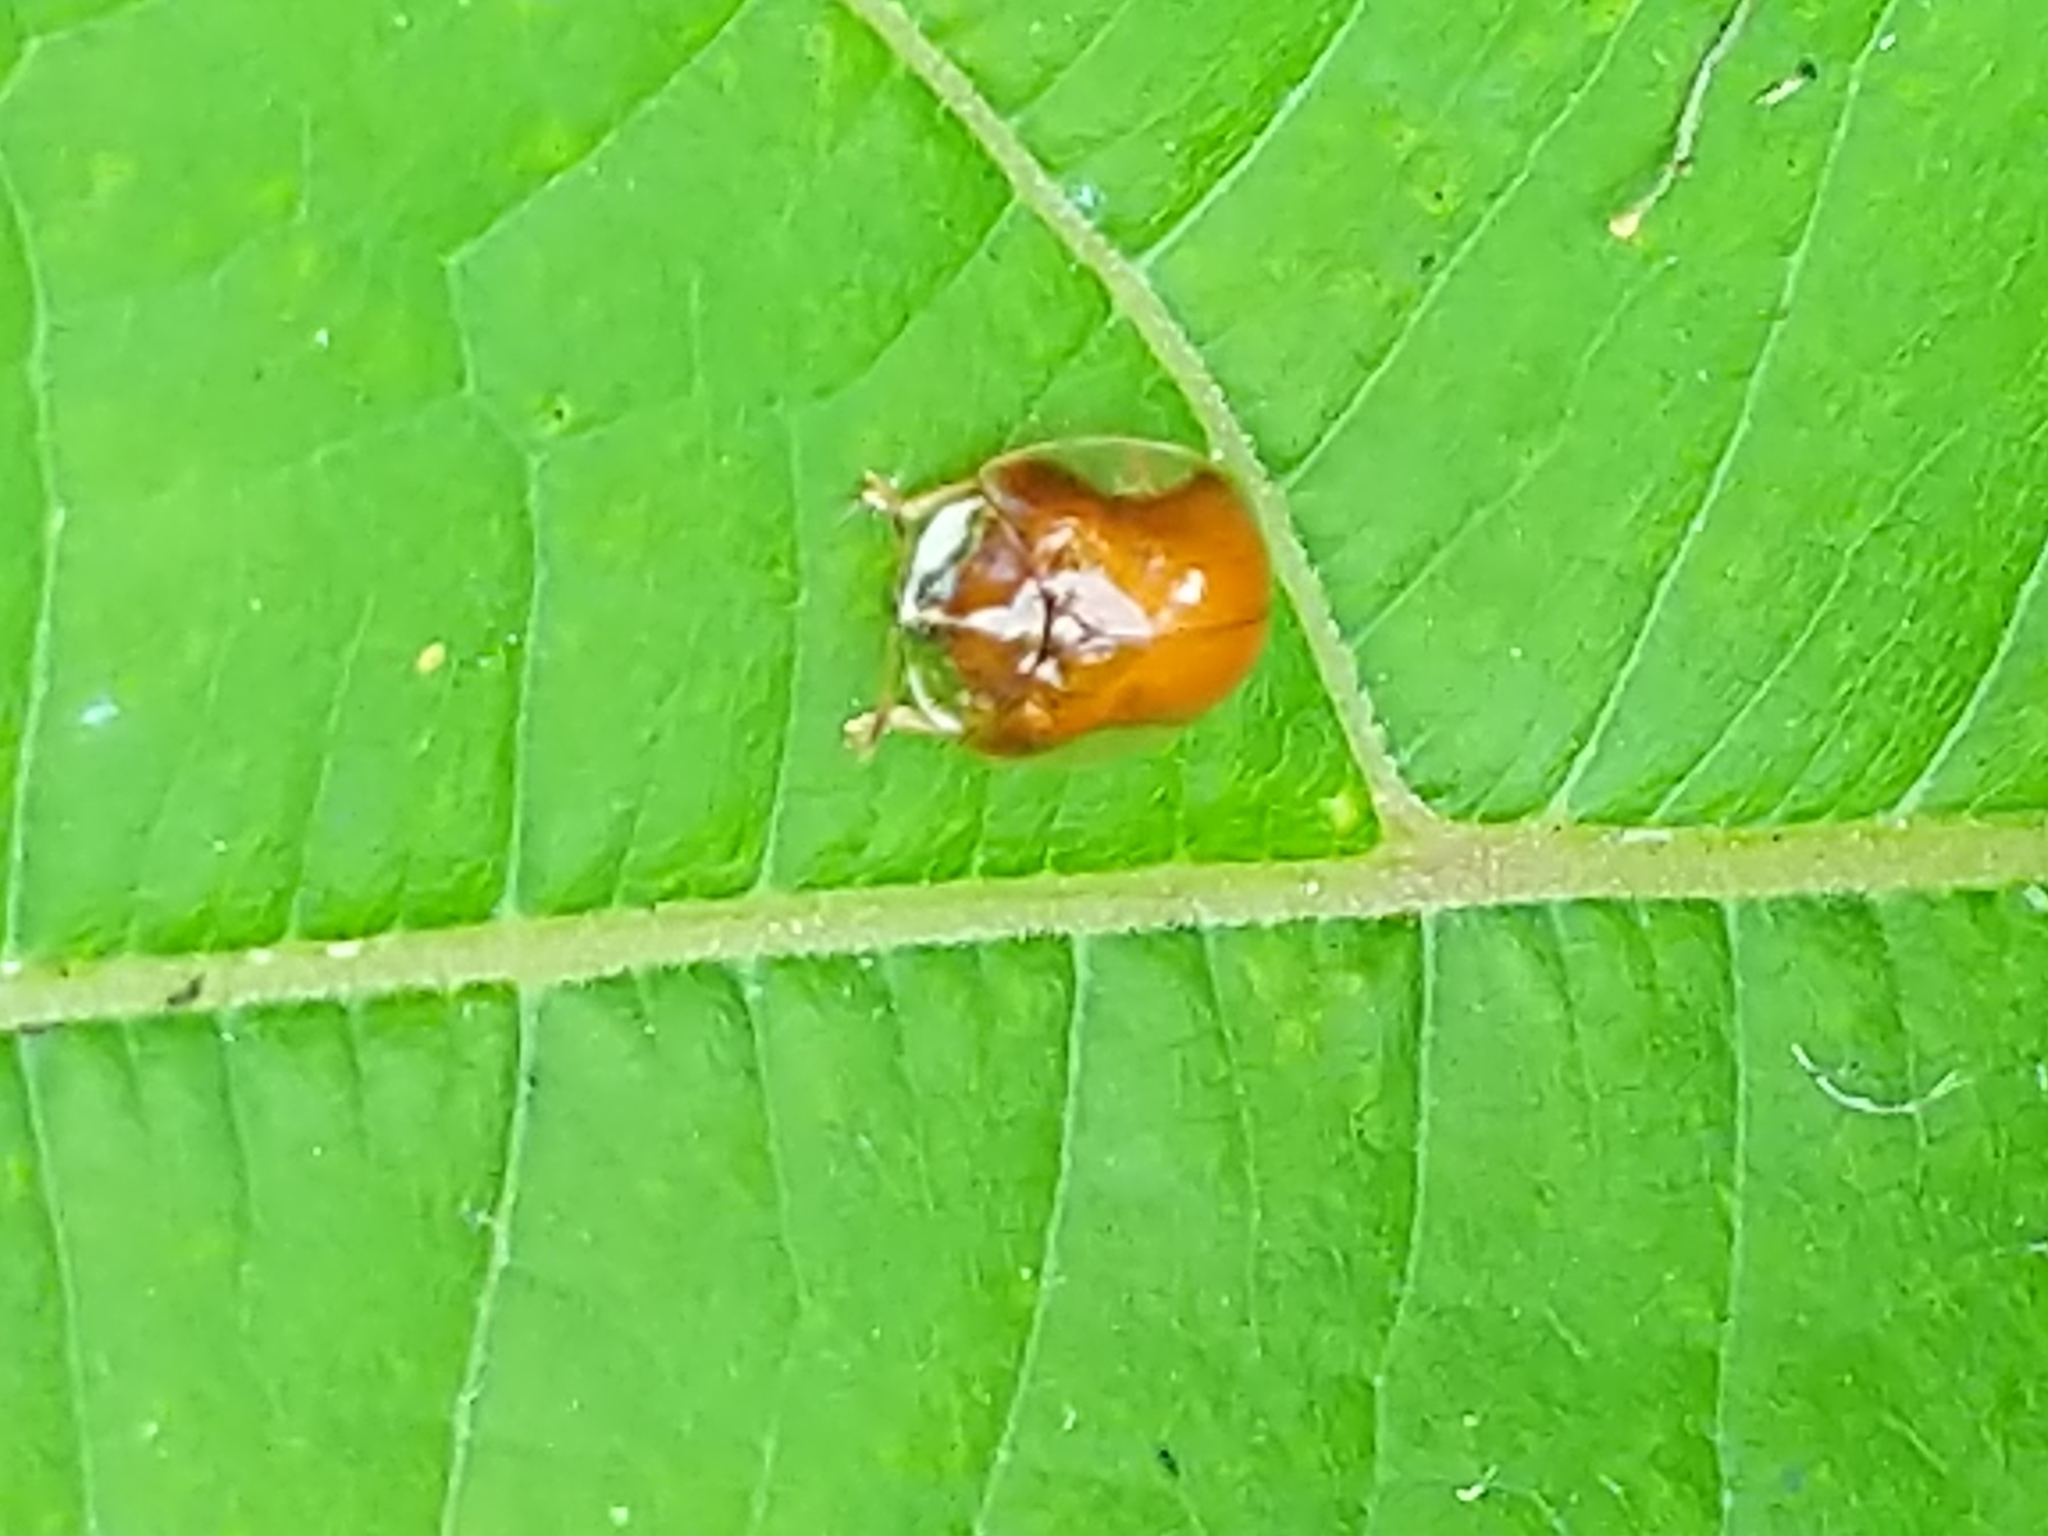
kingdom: Animalia
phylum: Arthropoda
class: Insecta
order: Coleoptera
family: Chrysomelidae
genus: Charidotella
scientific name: Charidotella purpurata
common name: Small orange tortoise beetle
